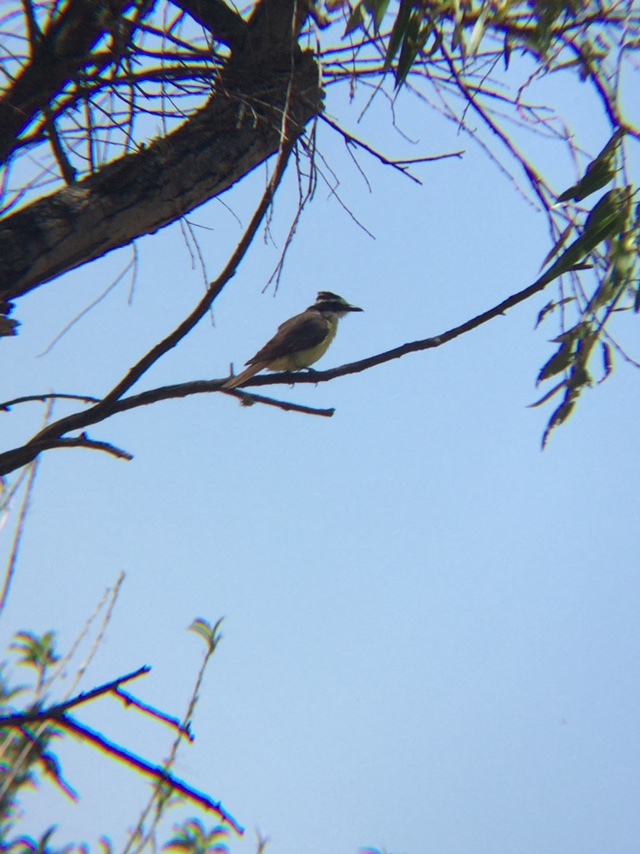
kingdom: Animalia
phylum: Chordata
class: Aves
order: Passeriformes
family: Tyrannidae
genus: Pitangus
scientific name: Pitangus sulphuratus
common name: Great kiskadee
